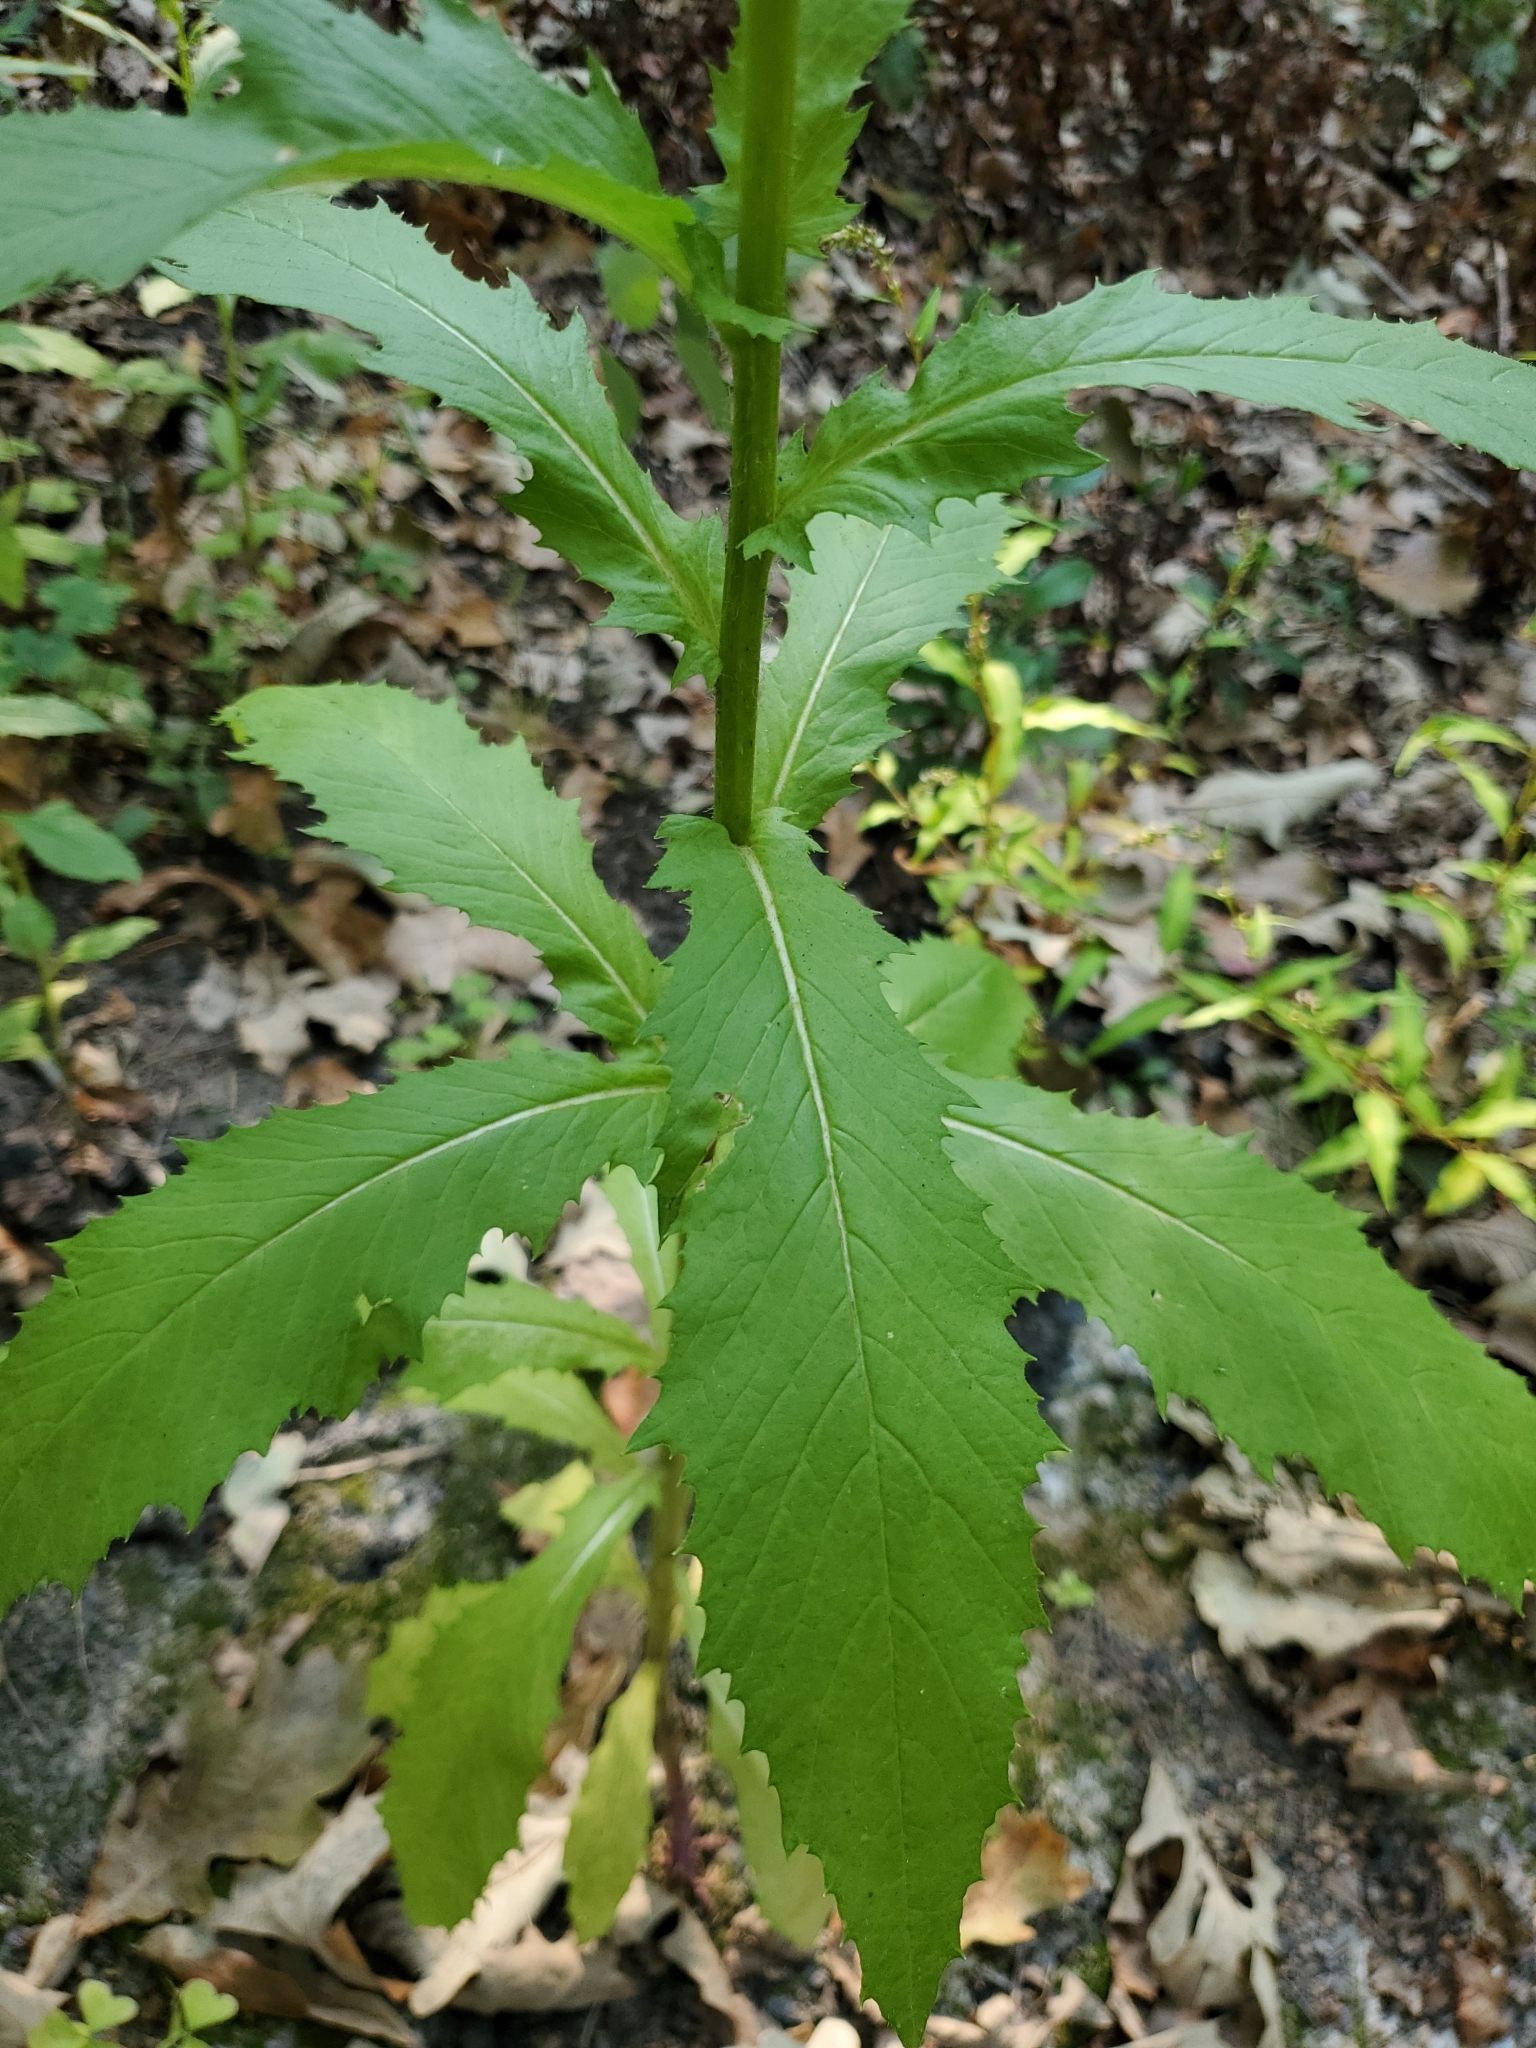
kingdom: Plantae
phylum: Tracheophyta
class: Magnoliopsida
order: Asterales
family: Asteraceae
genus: Erechtites
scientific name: Erechtites hieraciifolius
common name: American burnweed
